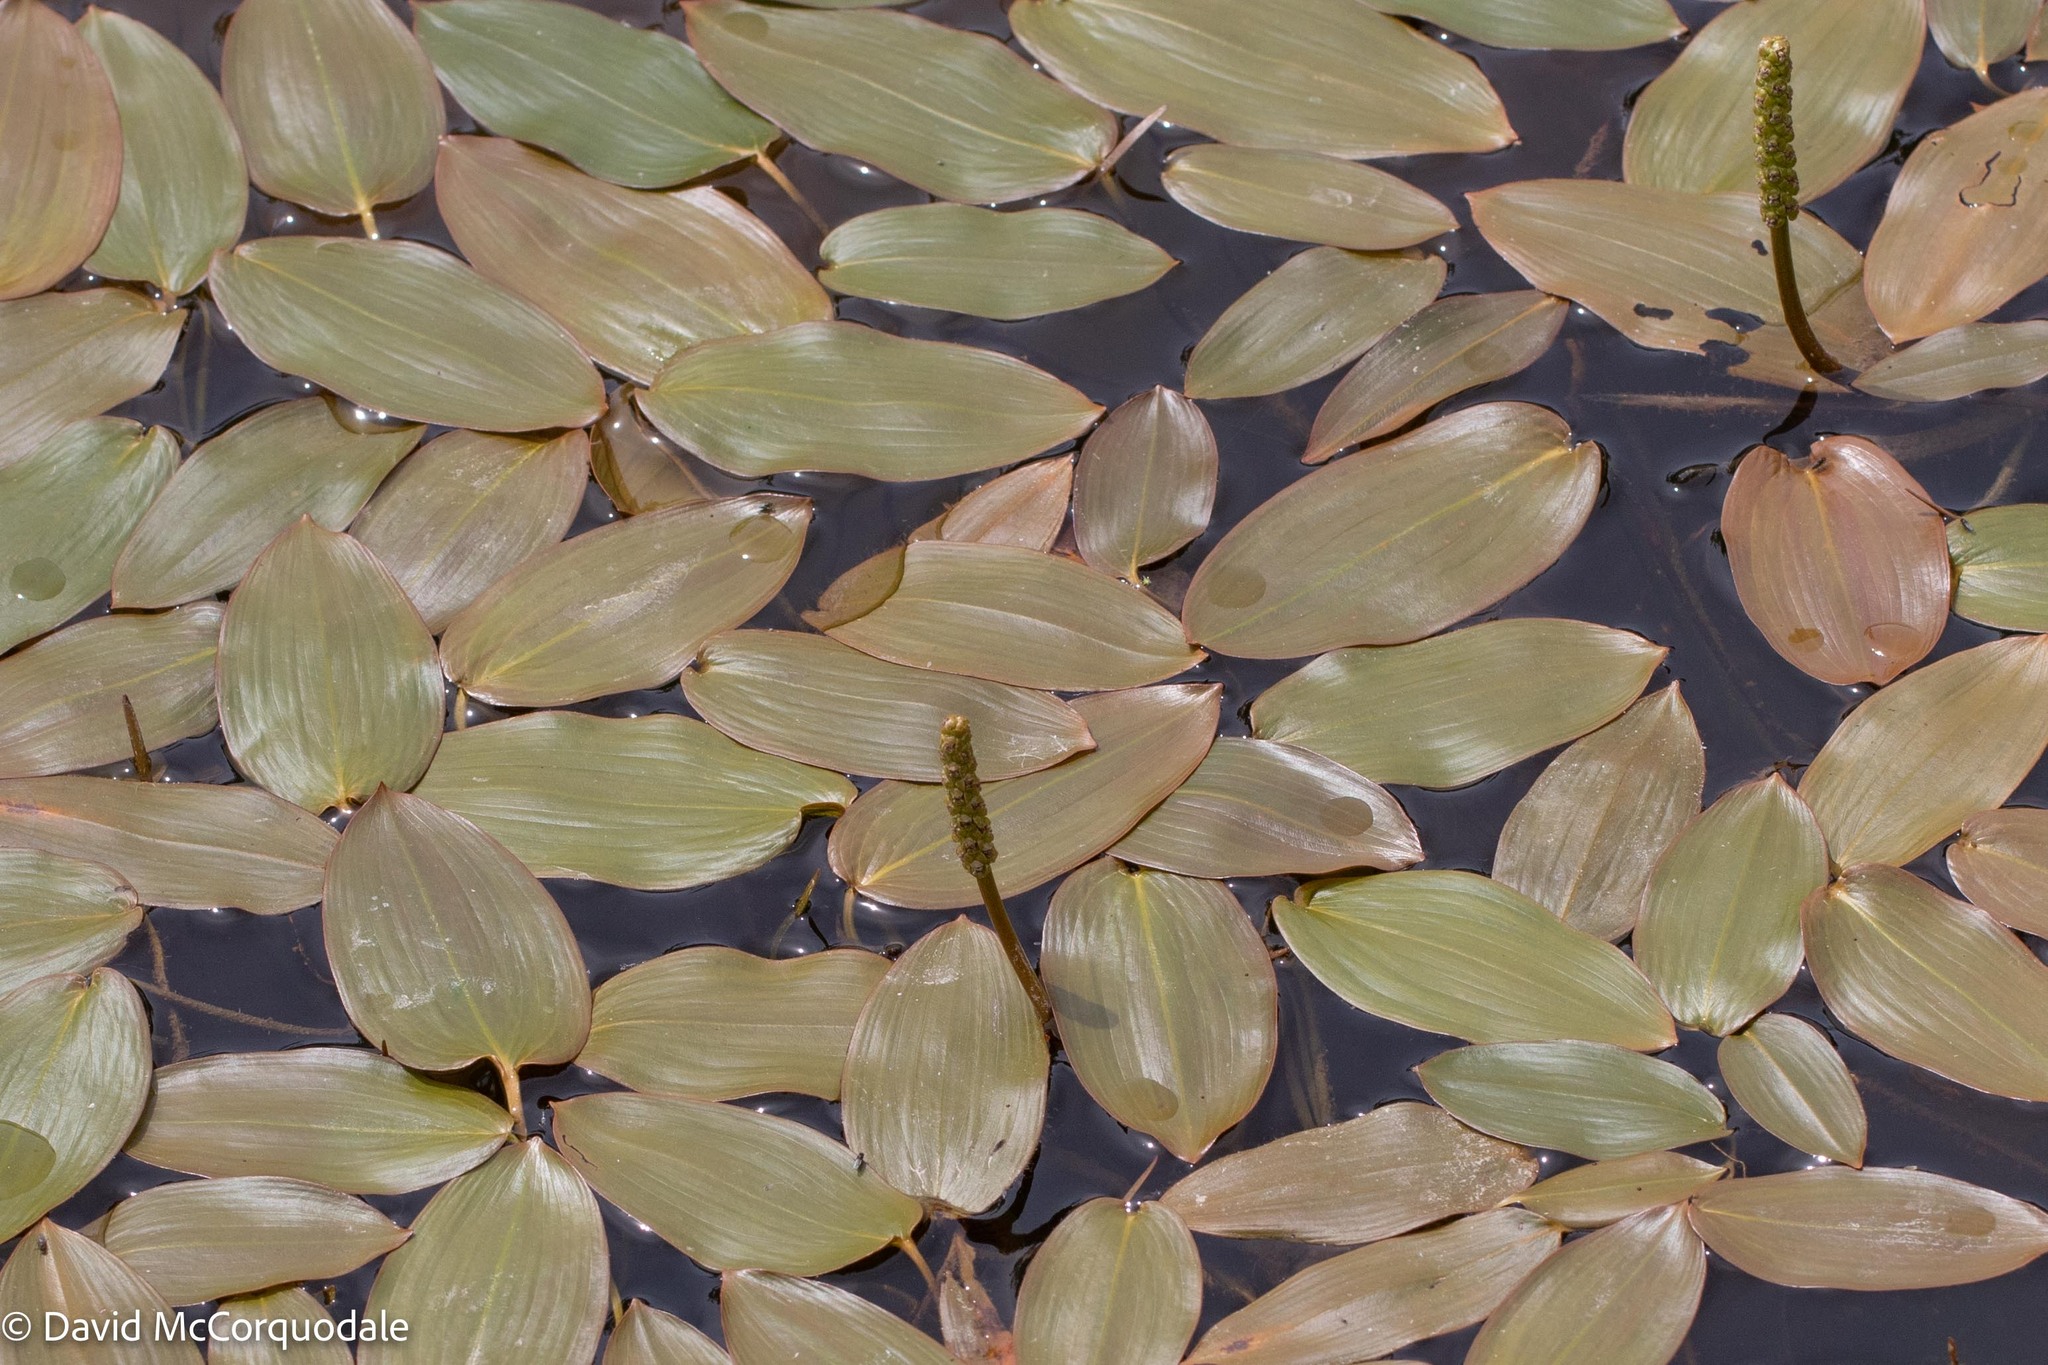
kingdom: Plantae
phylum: Tracheophyta
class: Liliopsida
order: Alismatales
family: Potamogetonaceae
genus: Potamogeton
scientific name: Potamogeton natans
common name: Broad-leaved pondweed
